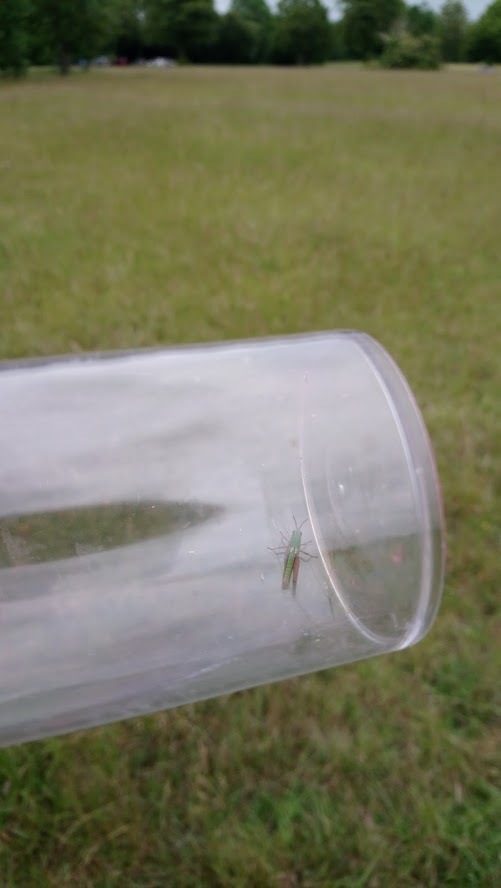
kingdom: Animalia
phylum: Arthropoda
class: Insecta
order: Orthoptera
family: Acrididae
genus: Pseudochorthippus
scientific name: Pseudochorthippus parallelus
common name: Meadow grasshopper
